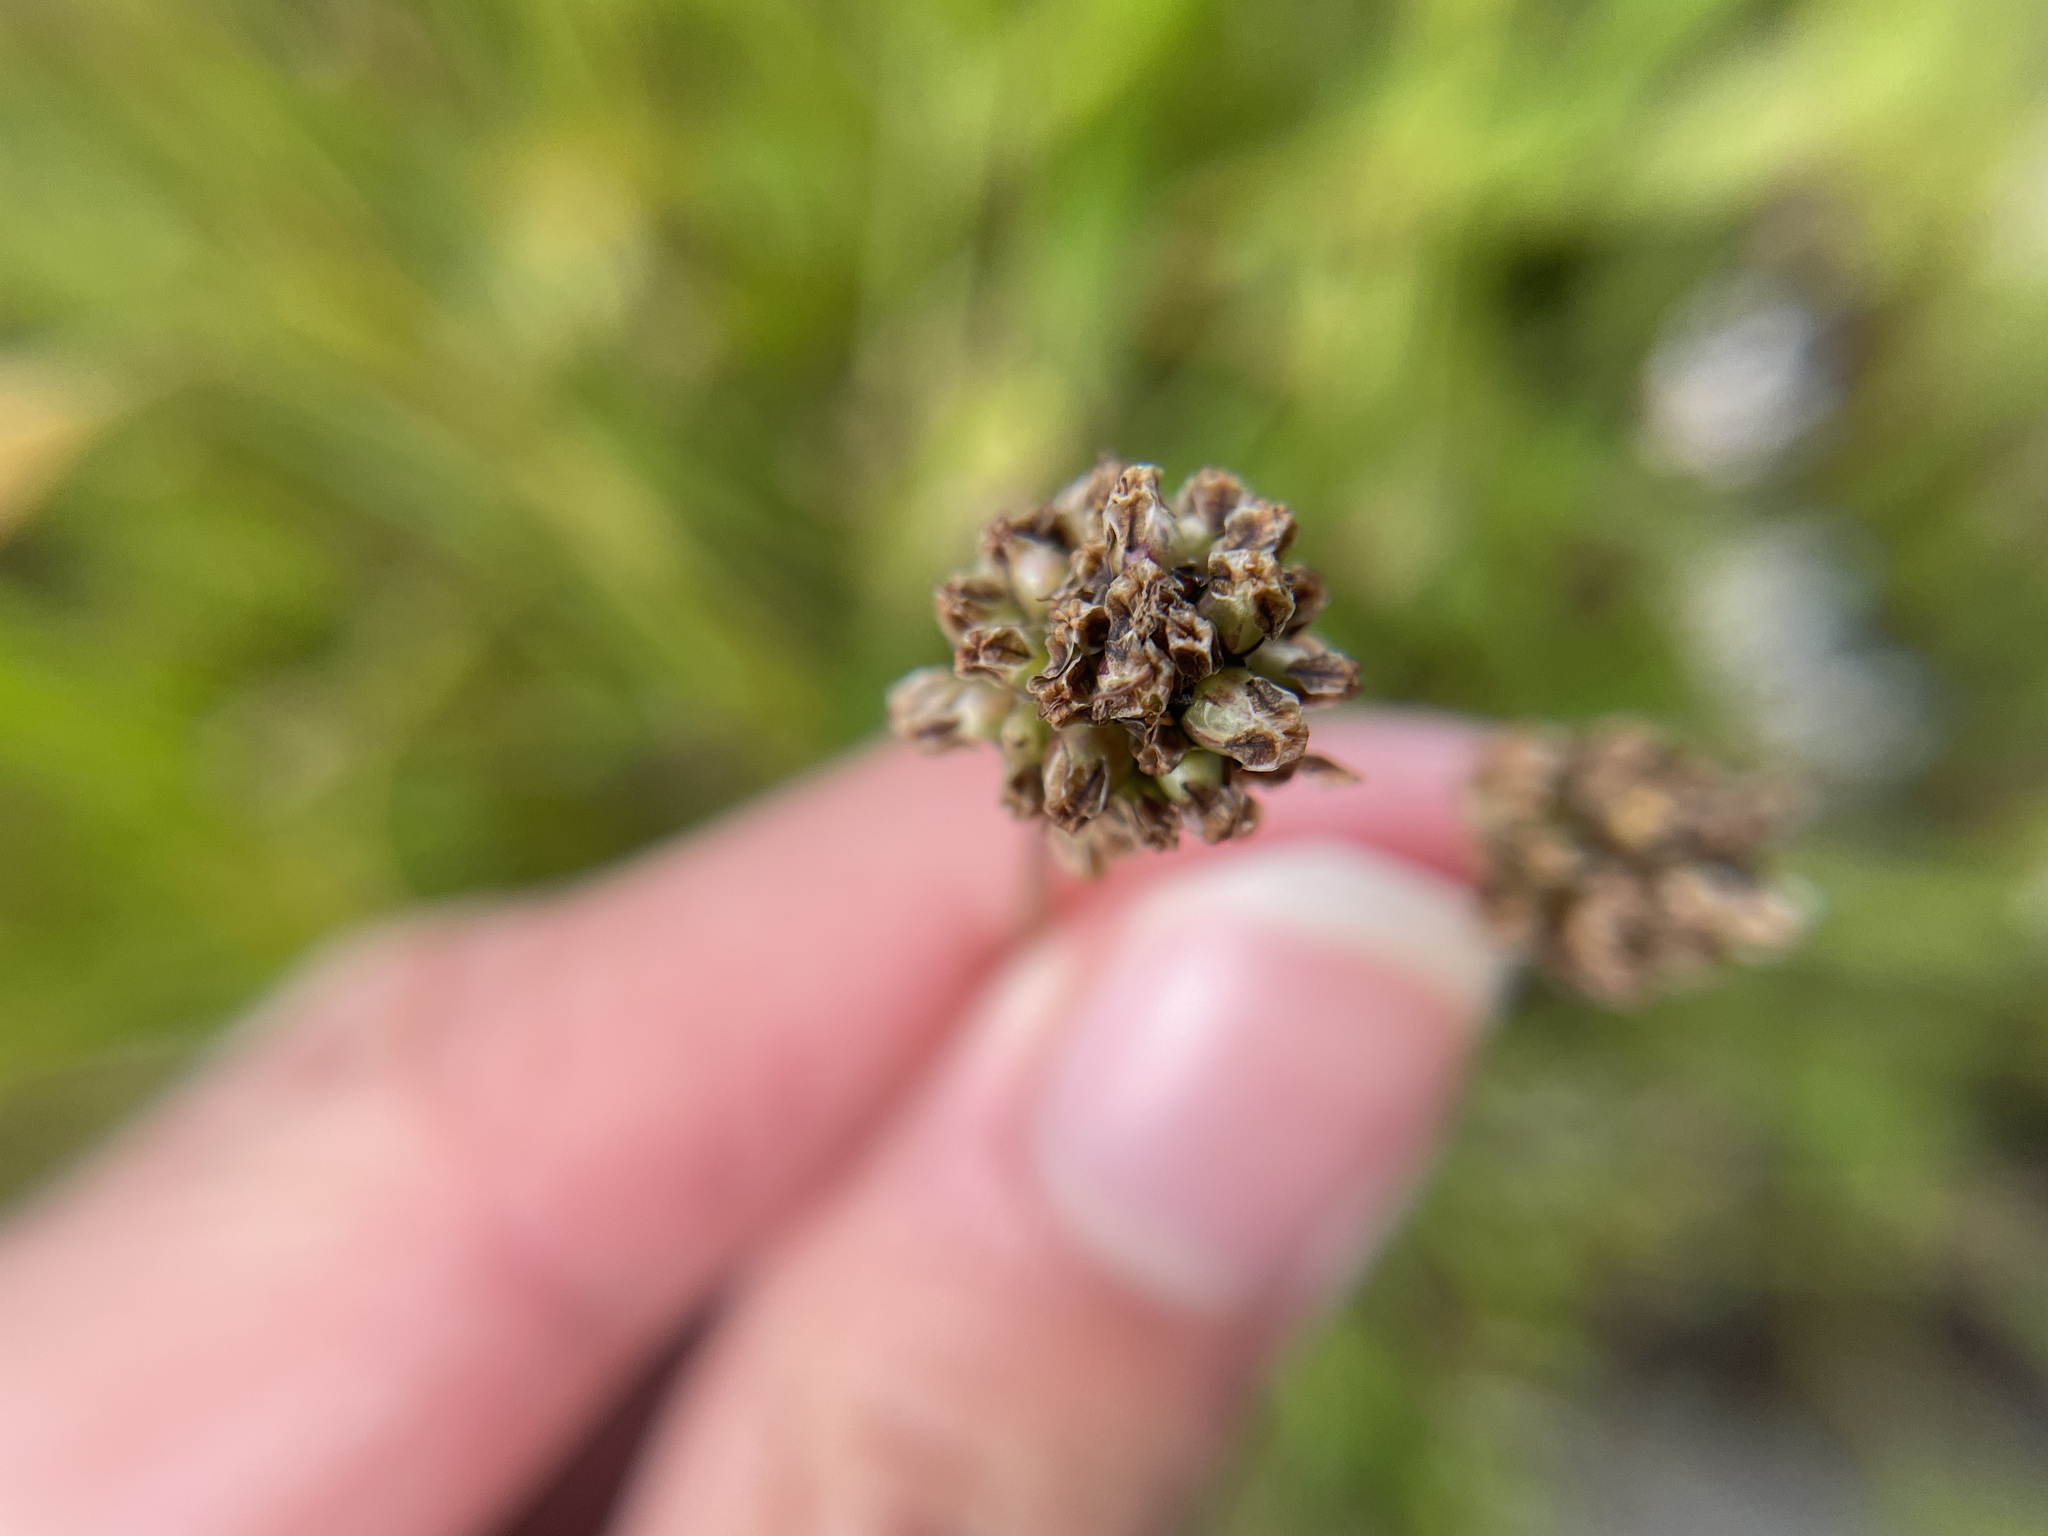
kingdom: Plantae
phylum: Tracheophyta
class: Magnoliopsida
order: Lamiales
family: Plantaginaceae
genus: Plantago
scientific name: Plantago lanceolata
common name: Ribwort plantain
